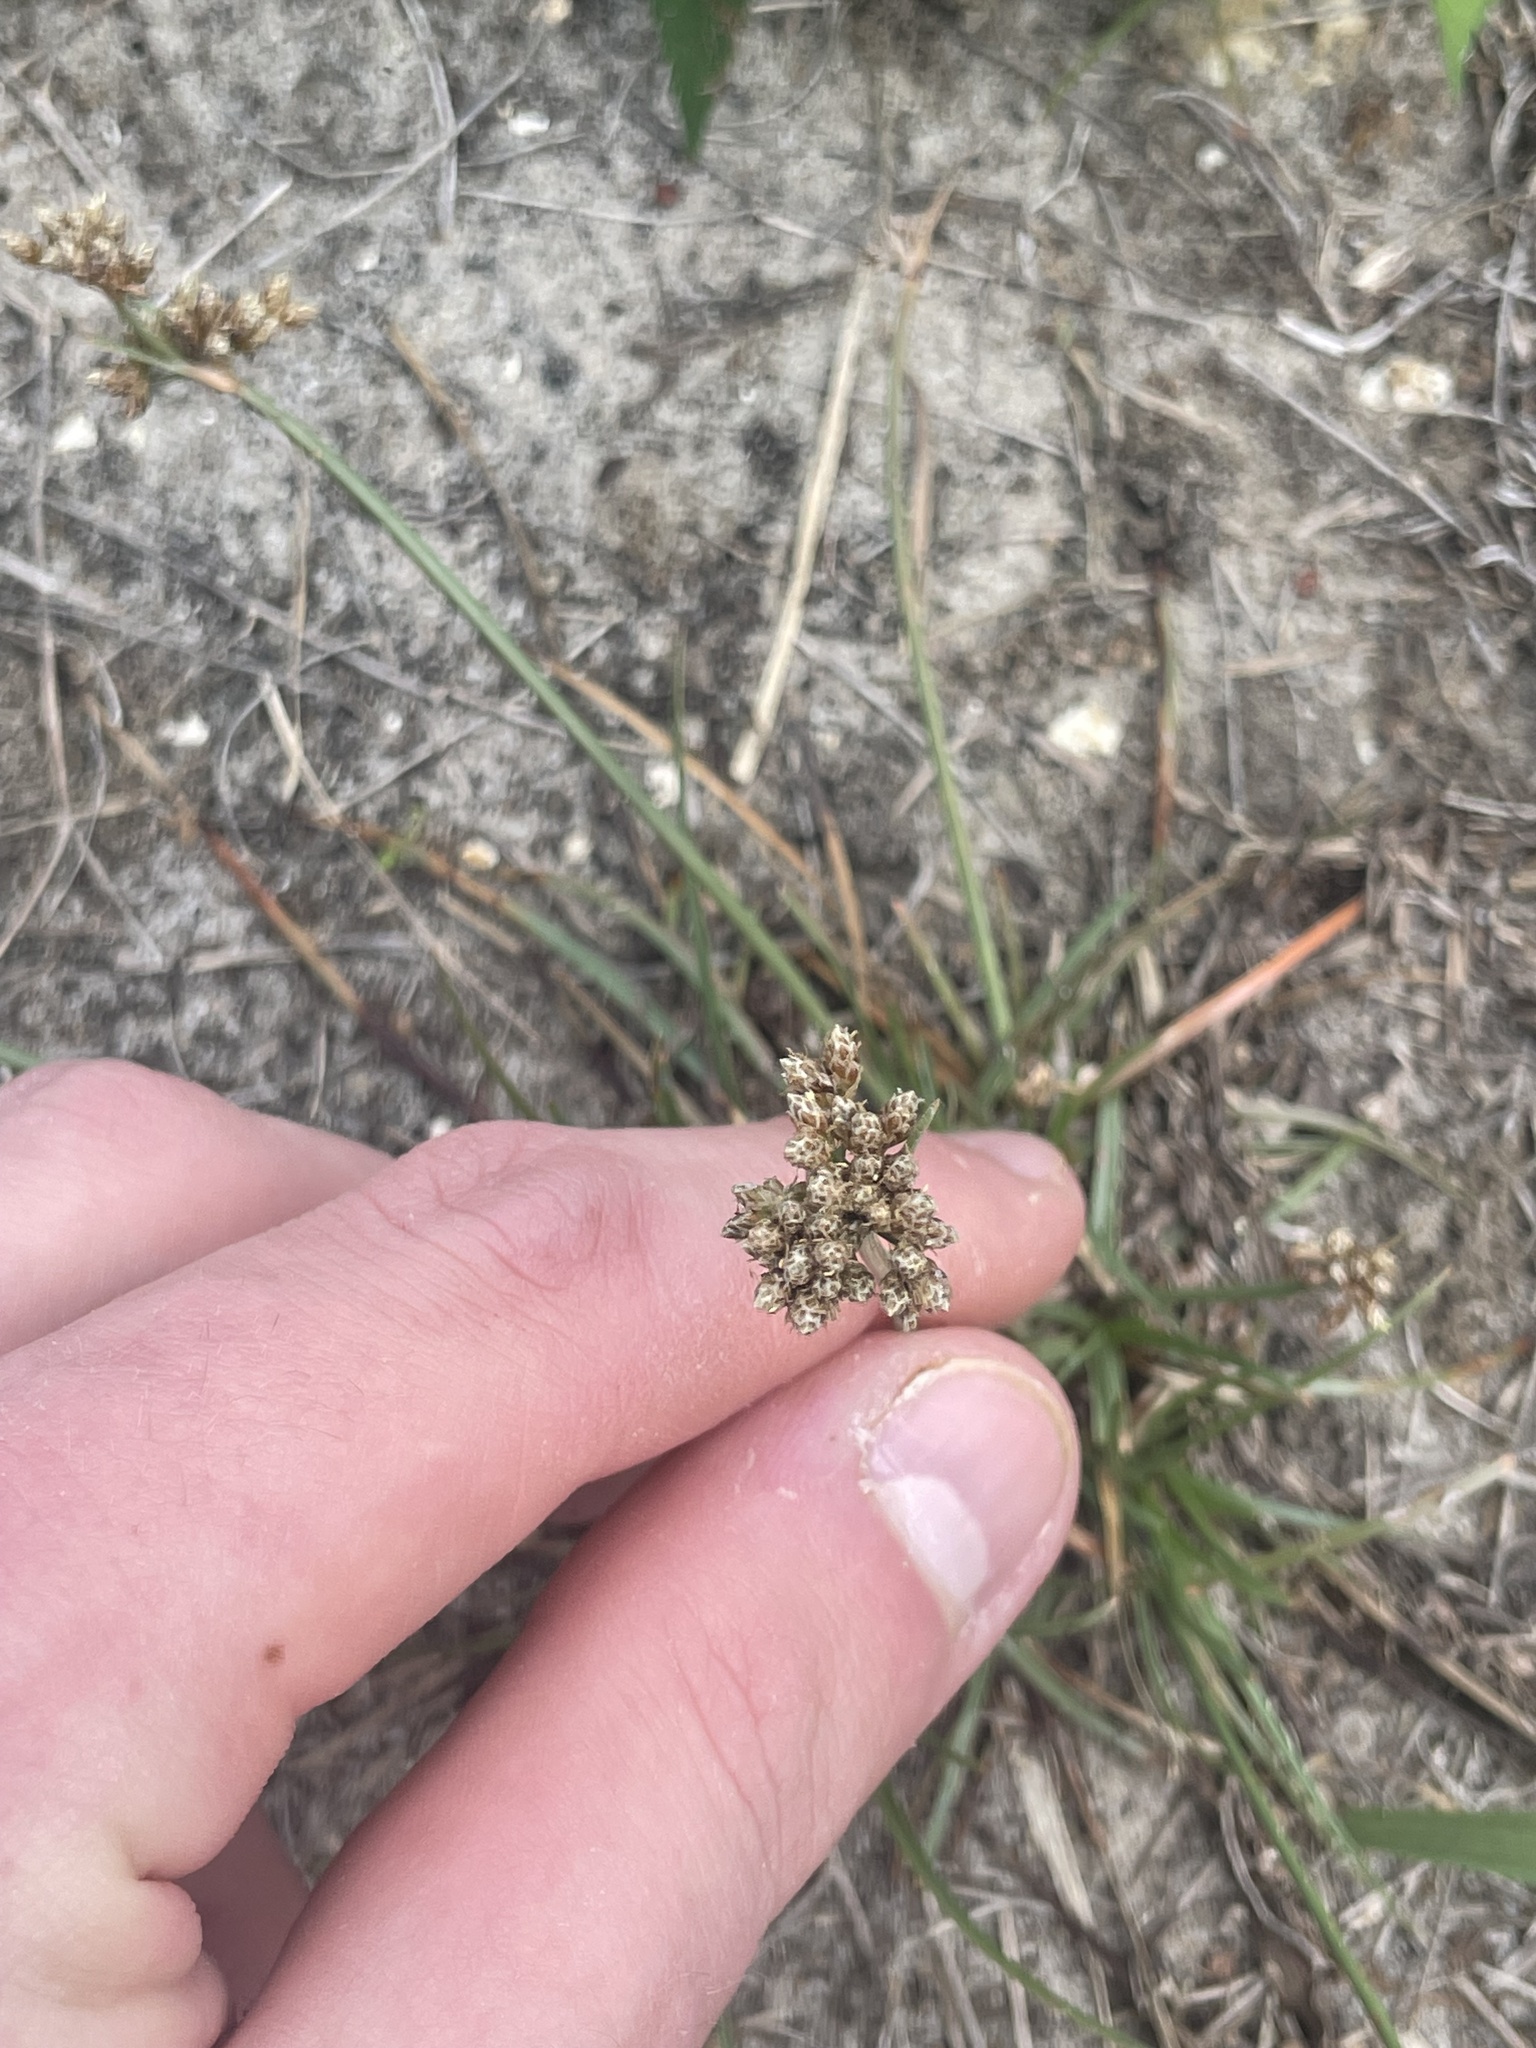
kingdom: Plantae
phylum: Tracheophyta
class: Liliopsida
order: Poales
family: Cyperaceae
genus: Fimbristylis
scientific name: Fimbristylis cymosa
